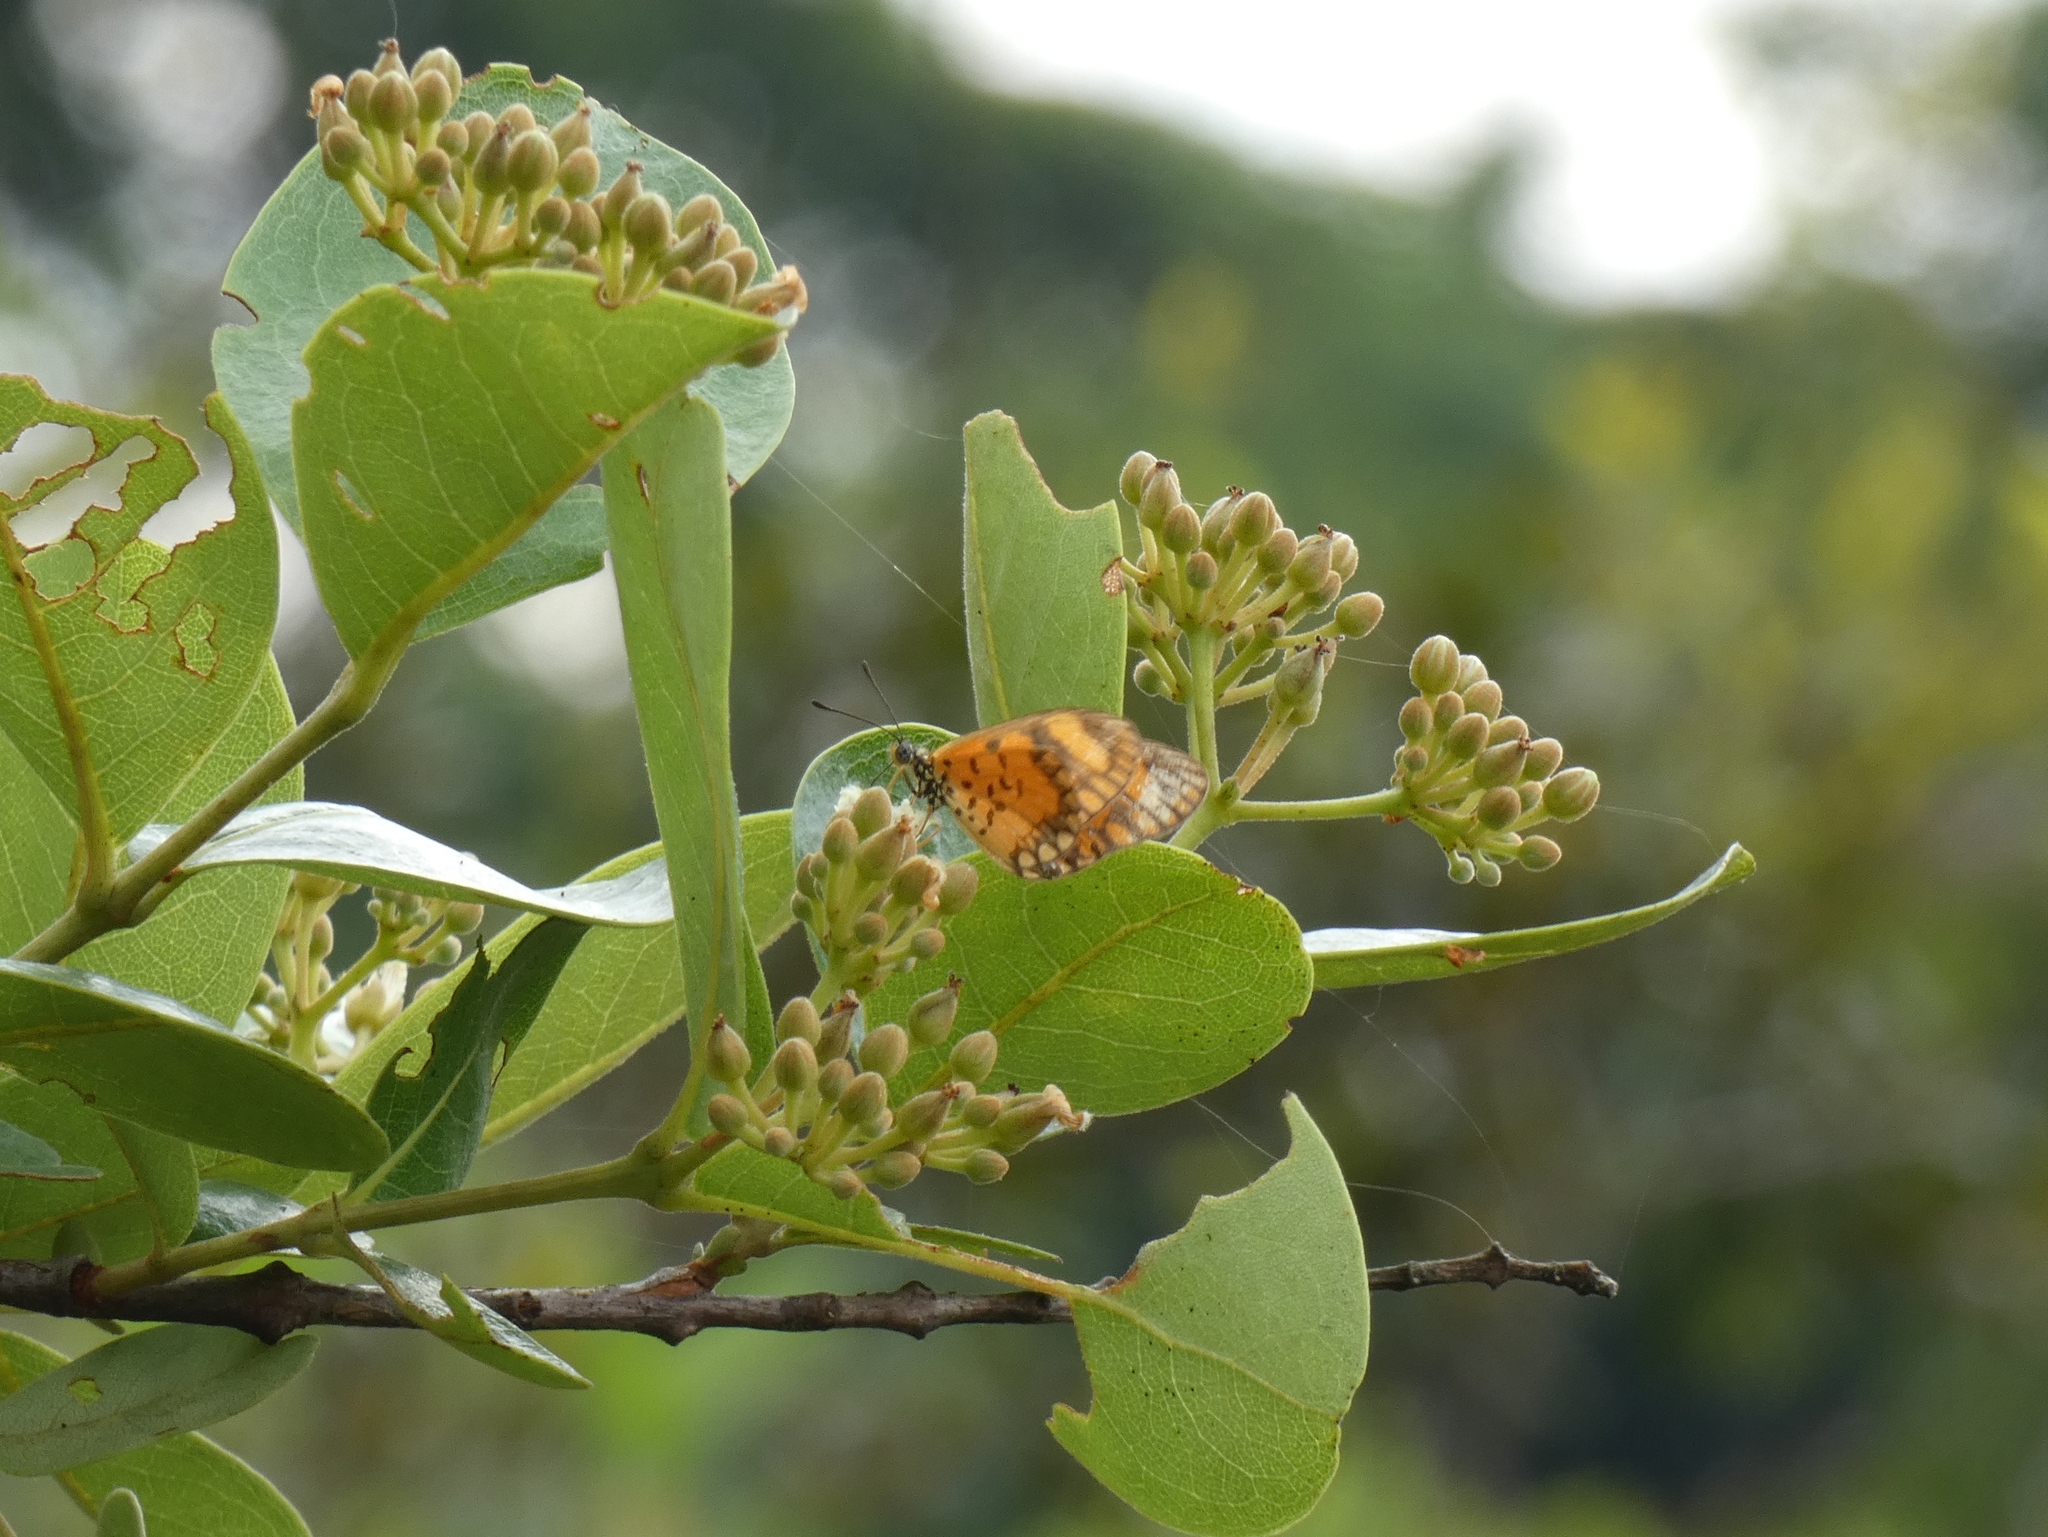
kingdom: Animalia
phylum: Arthropoda
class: Insecta
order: Lepidoptera
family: Nymphalidae
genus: Acraea
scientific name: Acraea Telchinia serena
